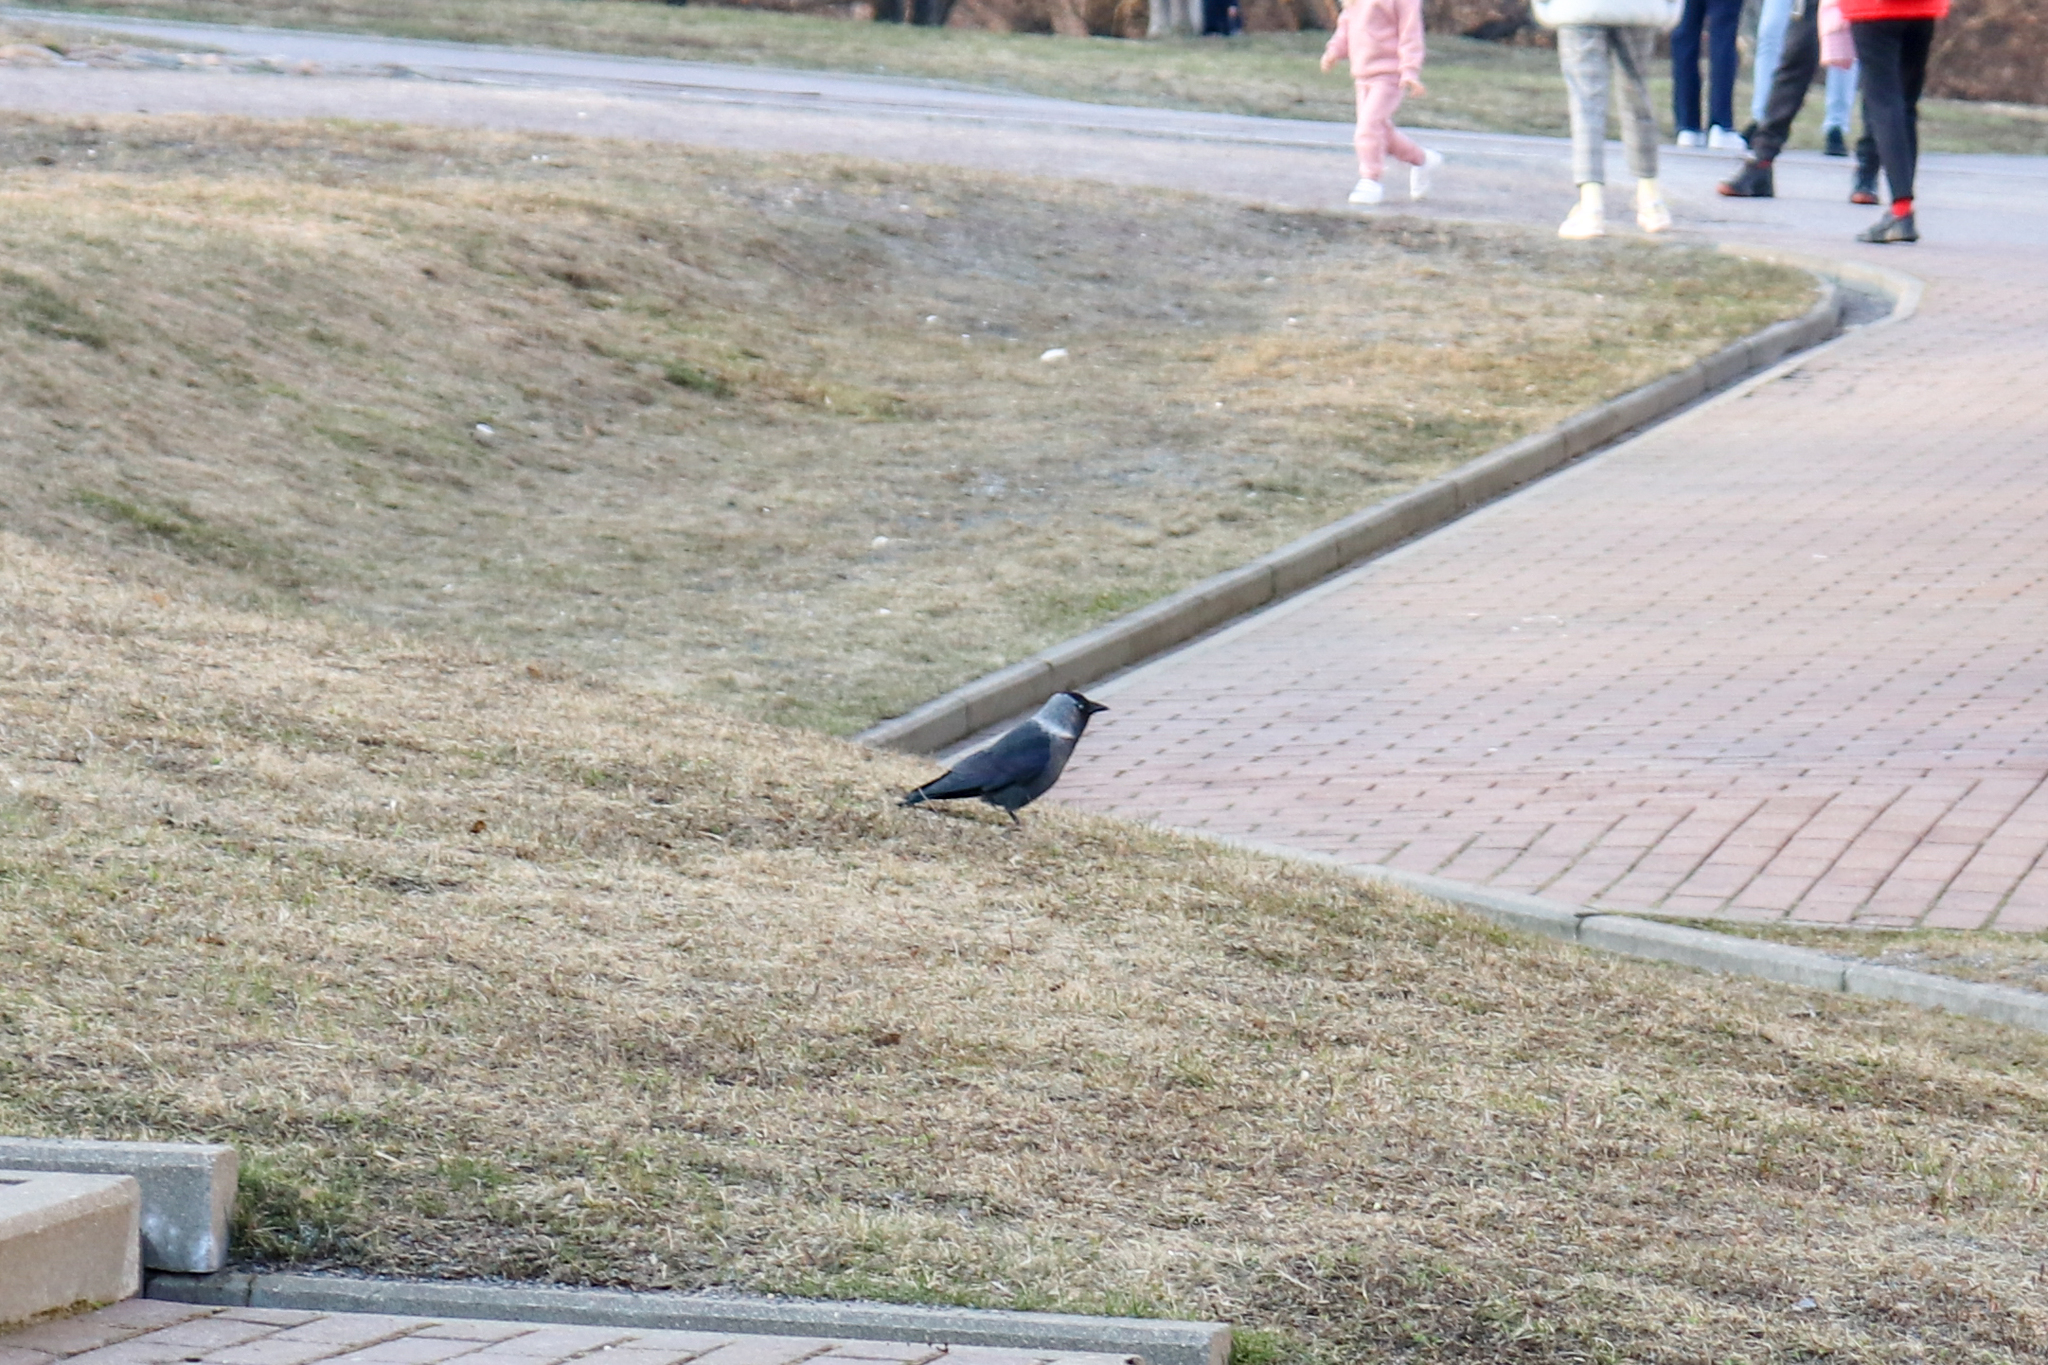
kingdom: Animalia
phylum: Chordata
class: Aves
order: Passeriformes
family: Corvidae
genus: Coloeus
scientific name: Coloeus monedula
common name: Western jackdaw
